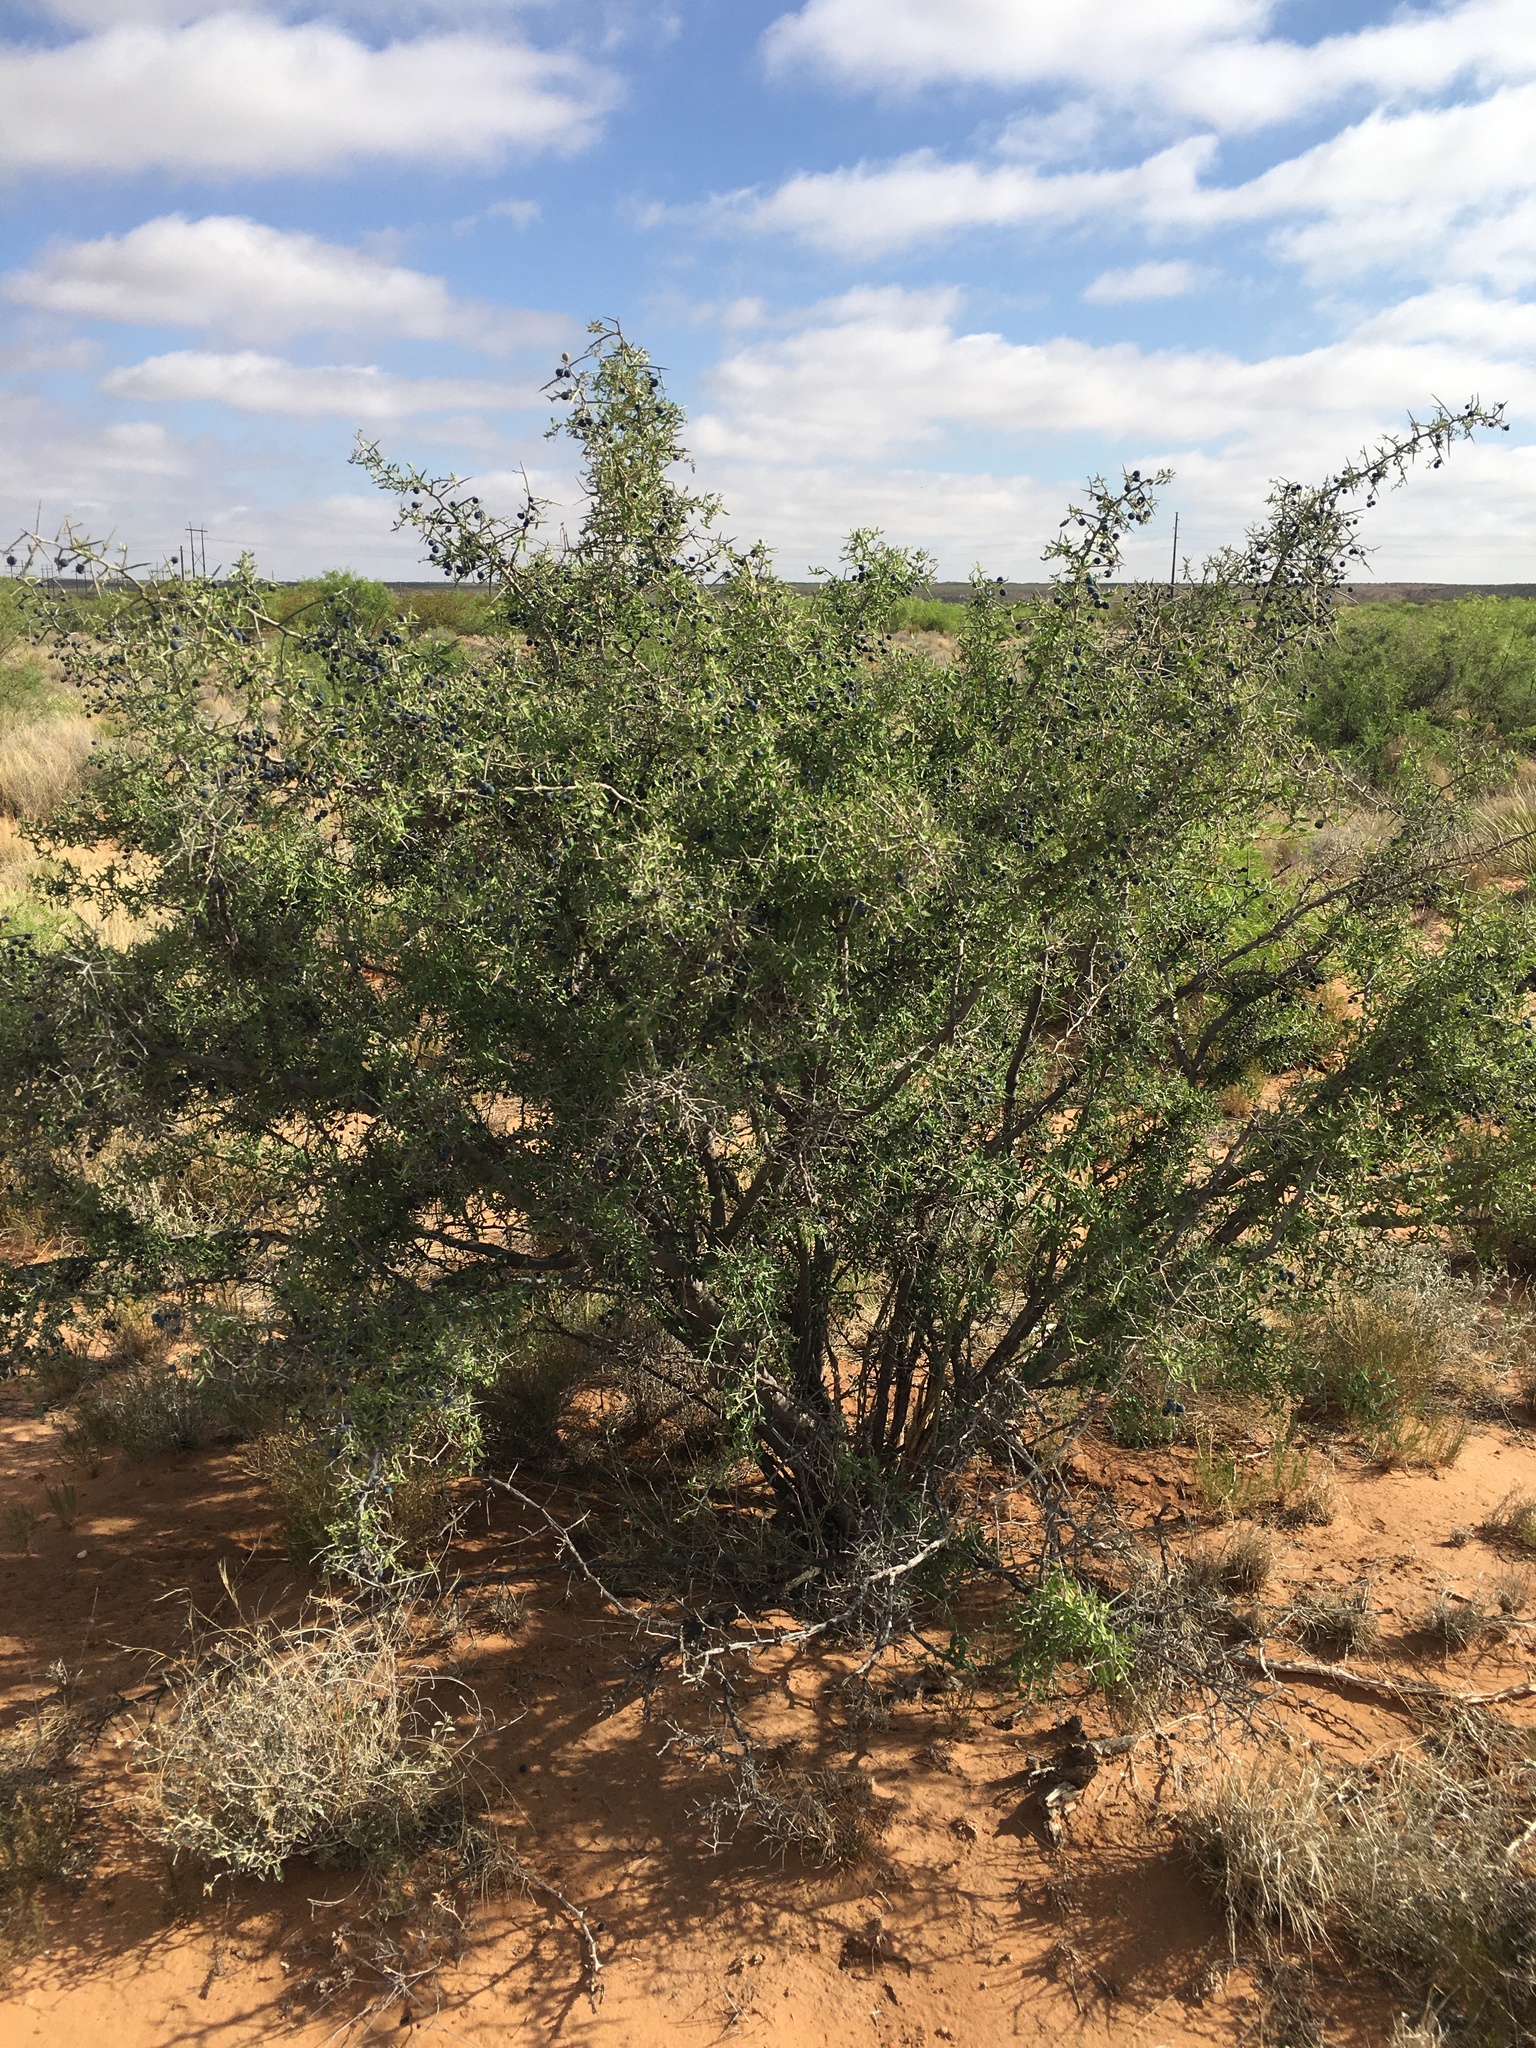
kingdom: Plantae
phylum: Tracheophyta
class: Magnoliopsida
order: Rosales
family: Rhamnaceae
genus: Sarcomphalus
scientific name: Sarcomphalus obtusifolius
